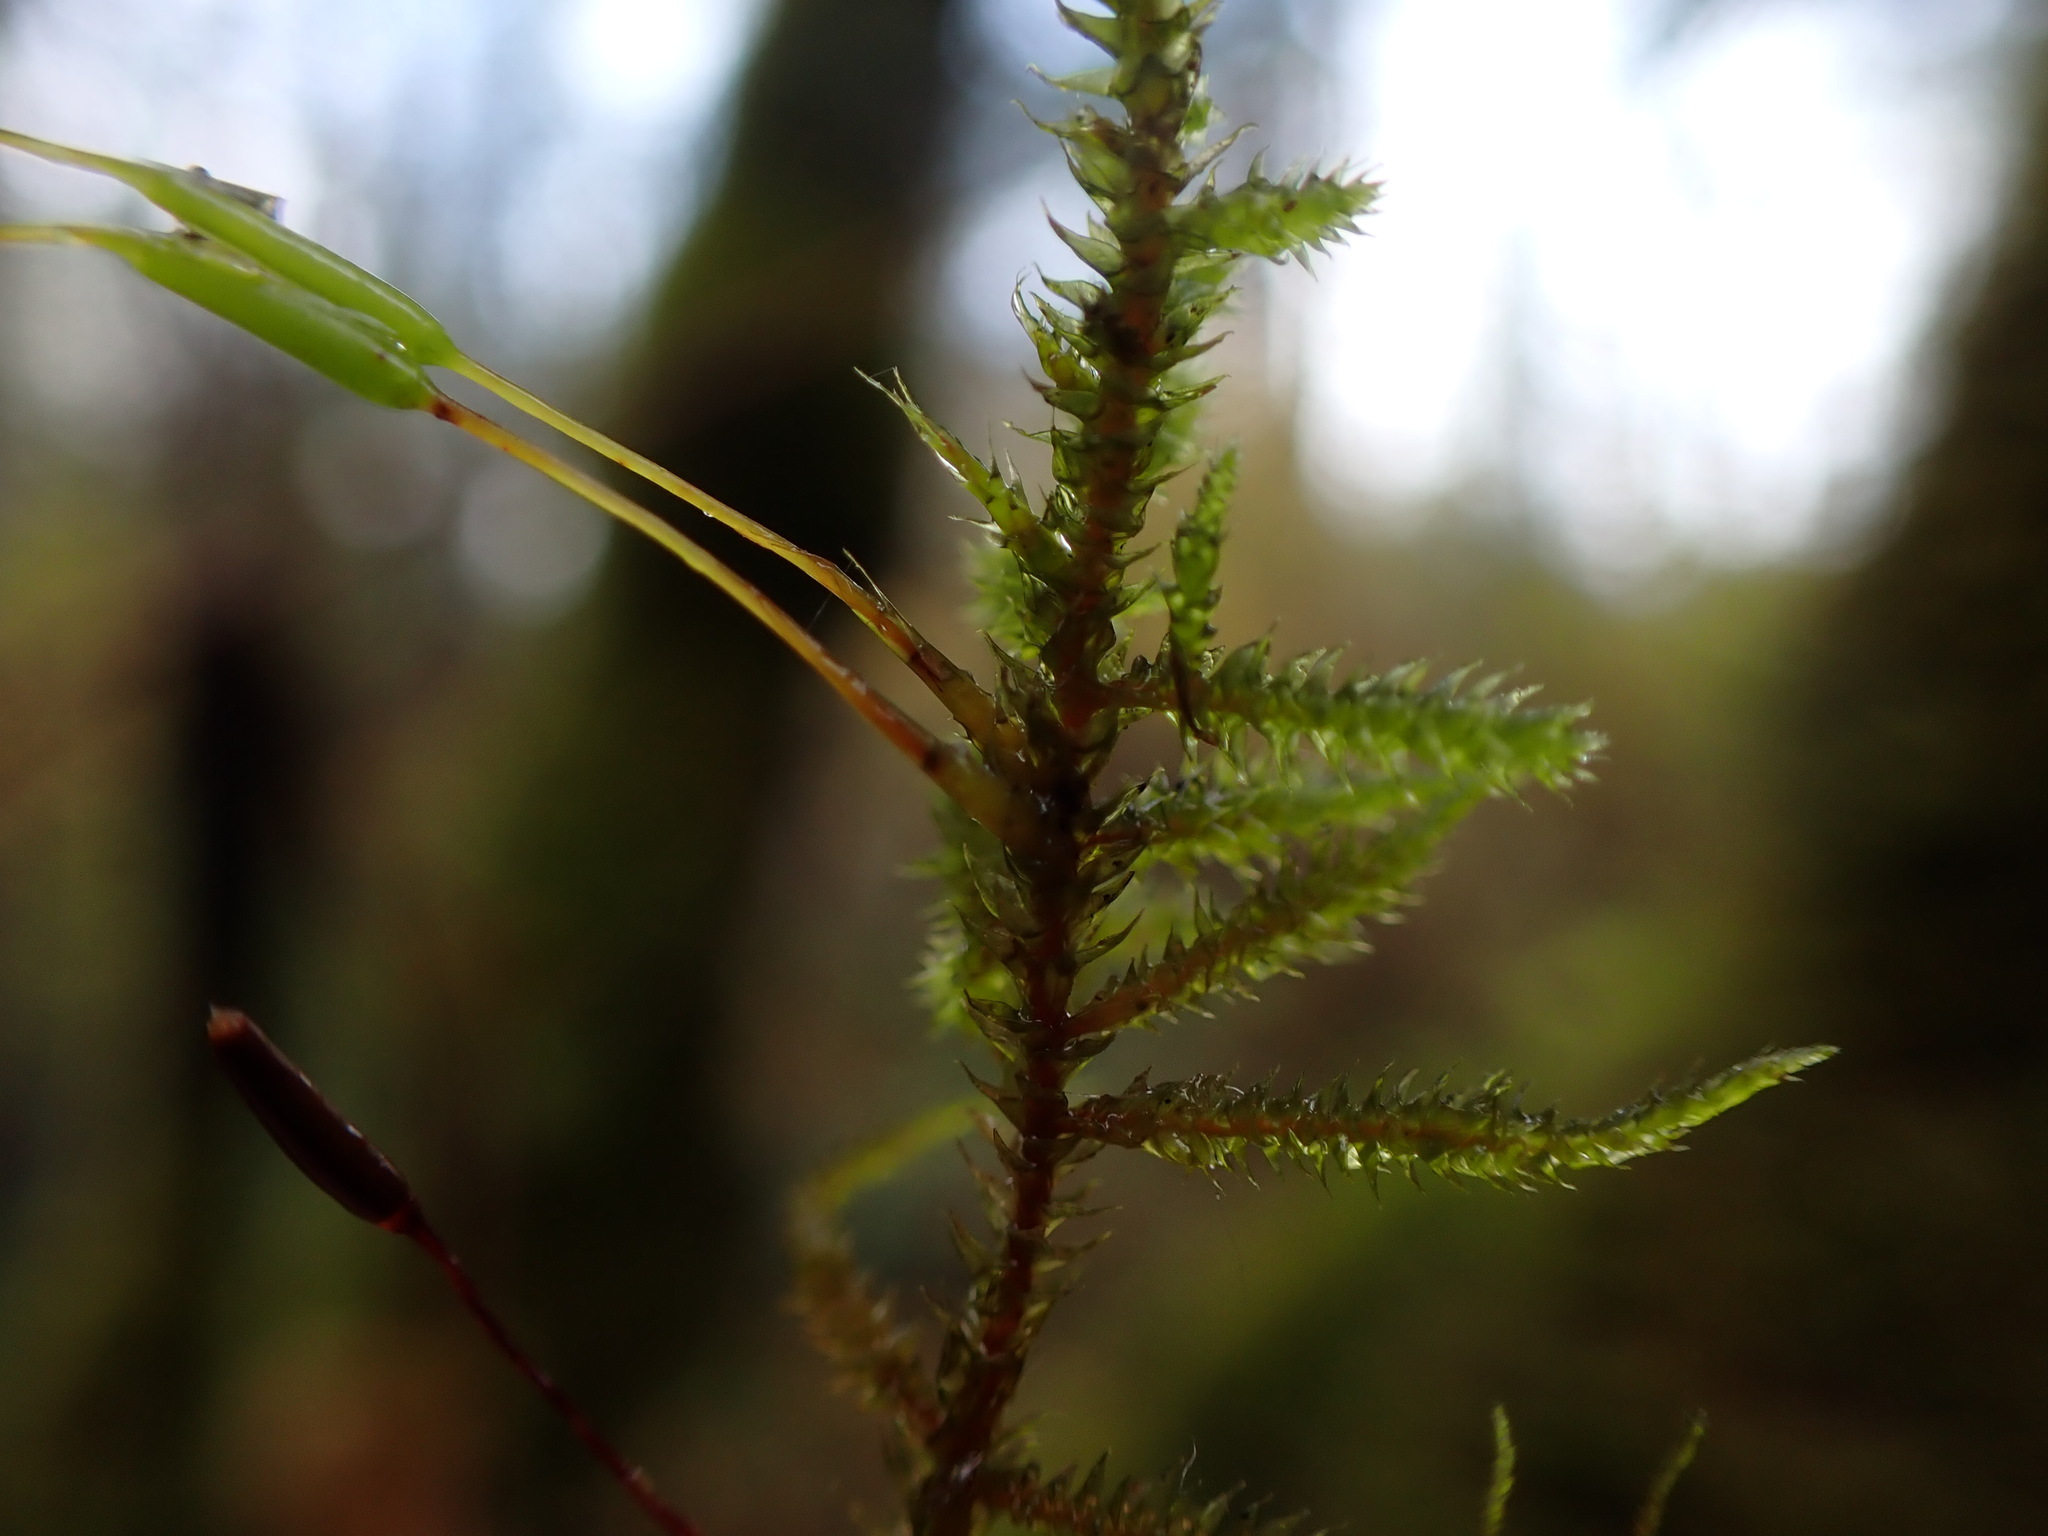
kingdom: Plantae
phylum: Bryophyta
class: Bryopsida
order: Hypnales
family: Antitrichiaceae
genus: Antitrichia
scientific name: Antitrichia californica
